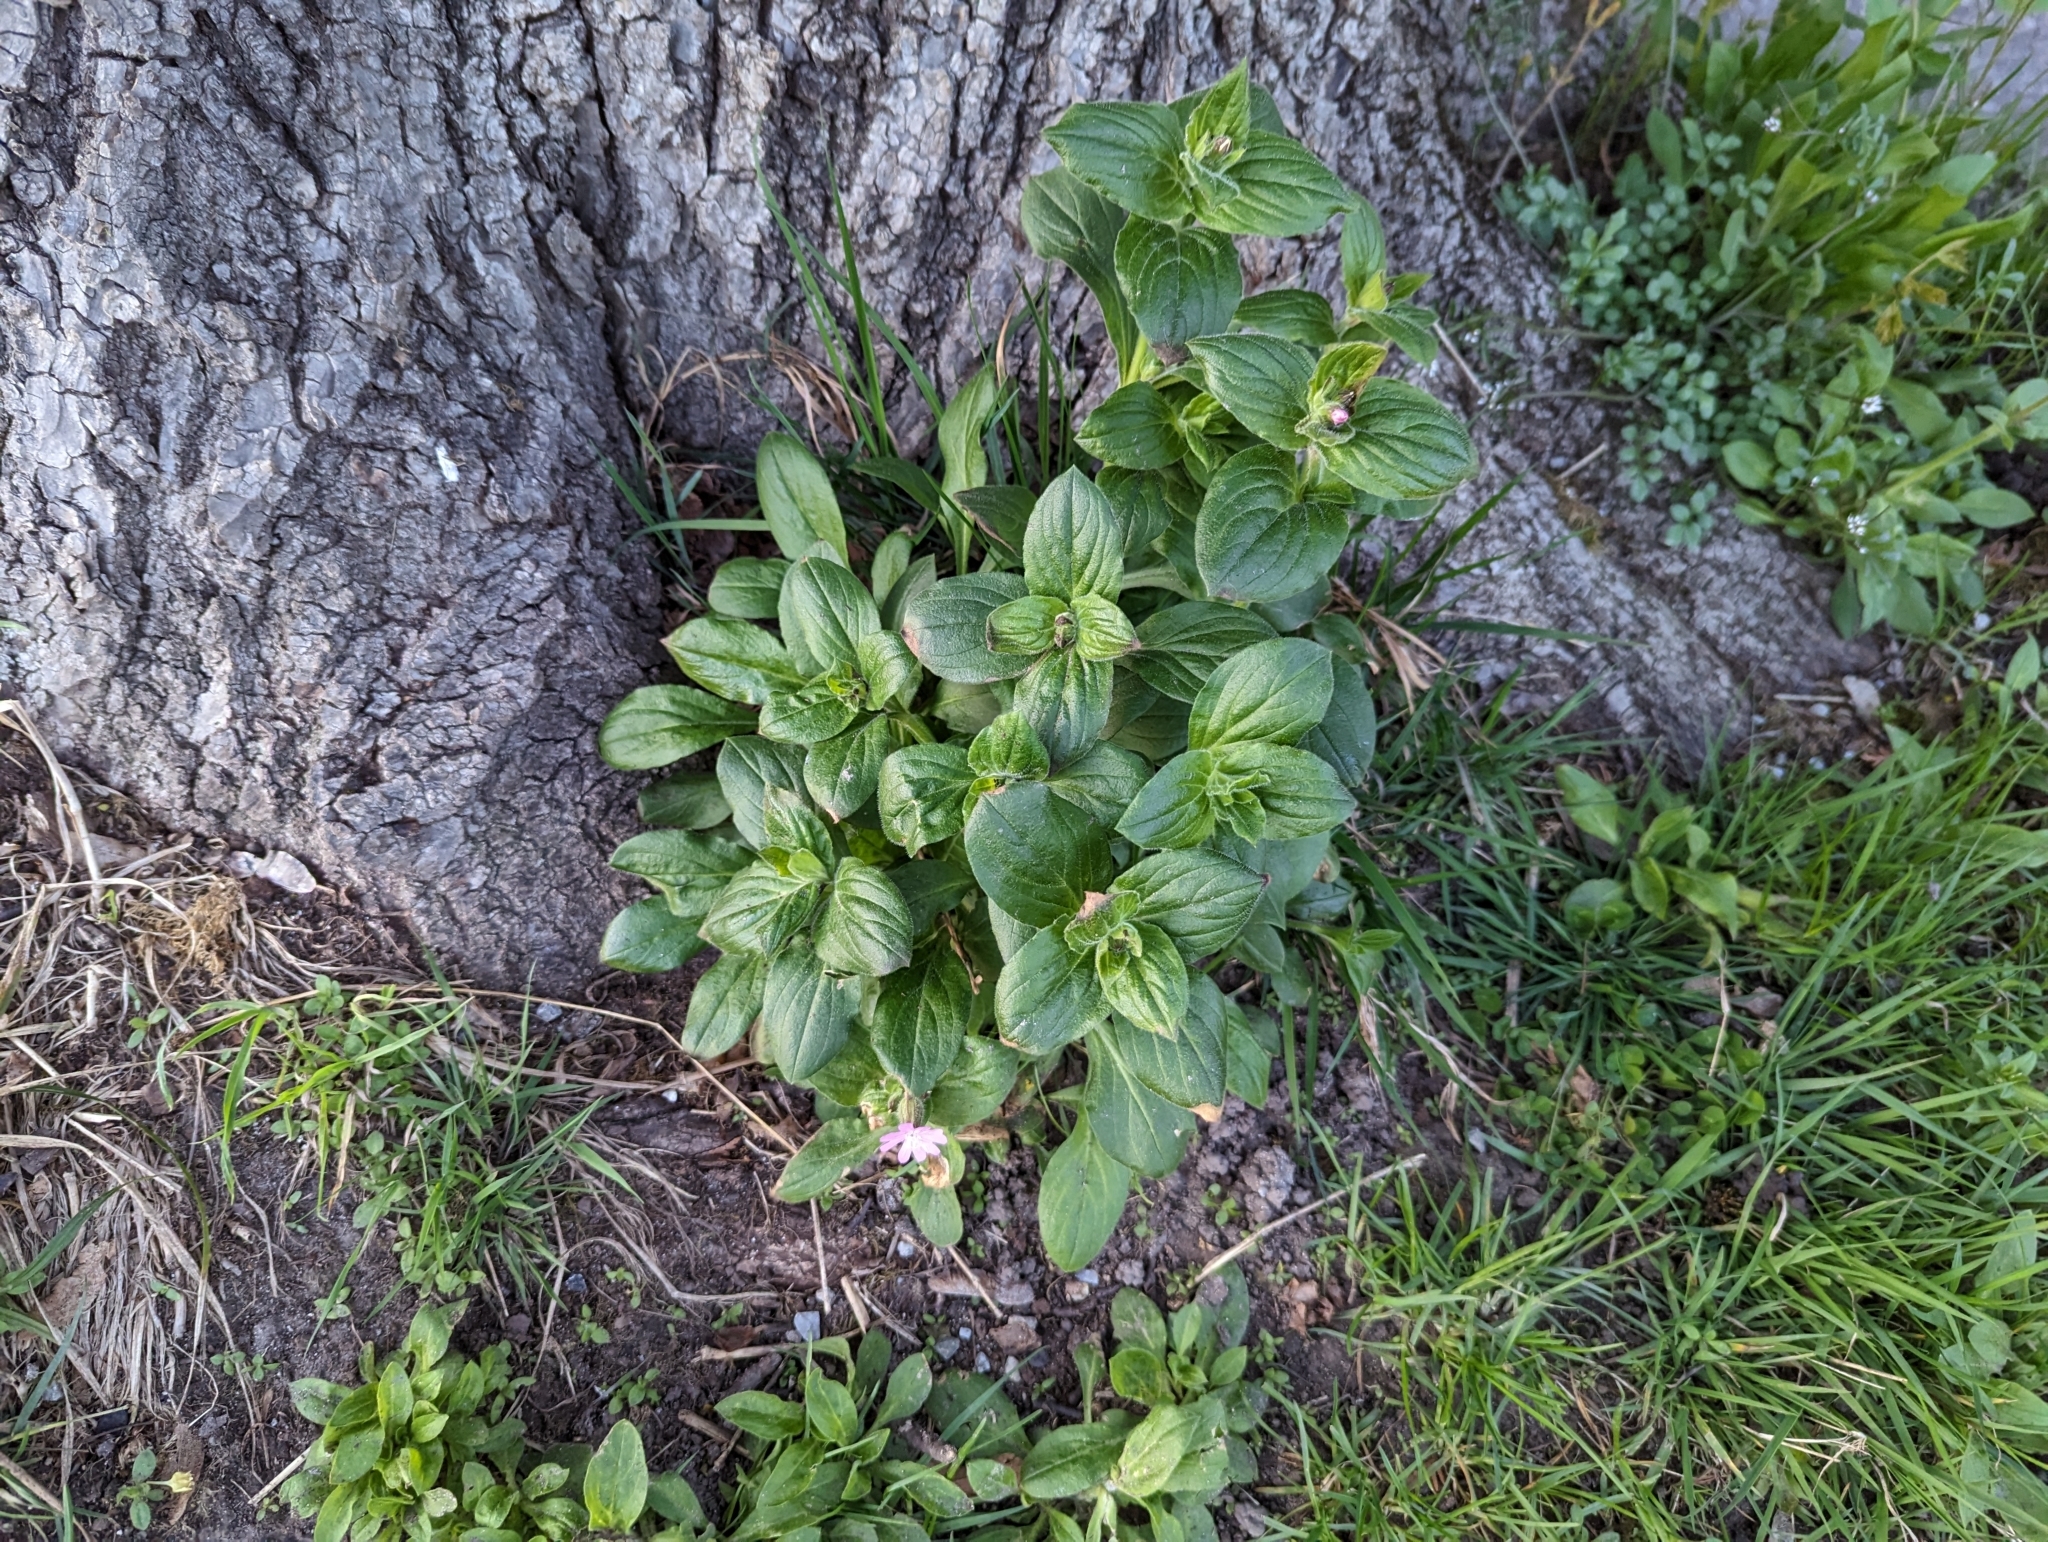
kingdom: Plantae
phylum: Tracheophyta
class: Magnoliopsida
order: Caryophyllales
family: Caryophyllaceae
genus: Silene
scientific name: Silene dioica
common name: Red campion
